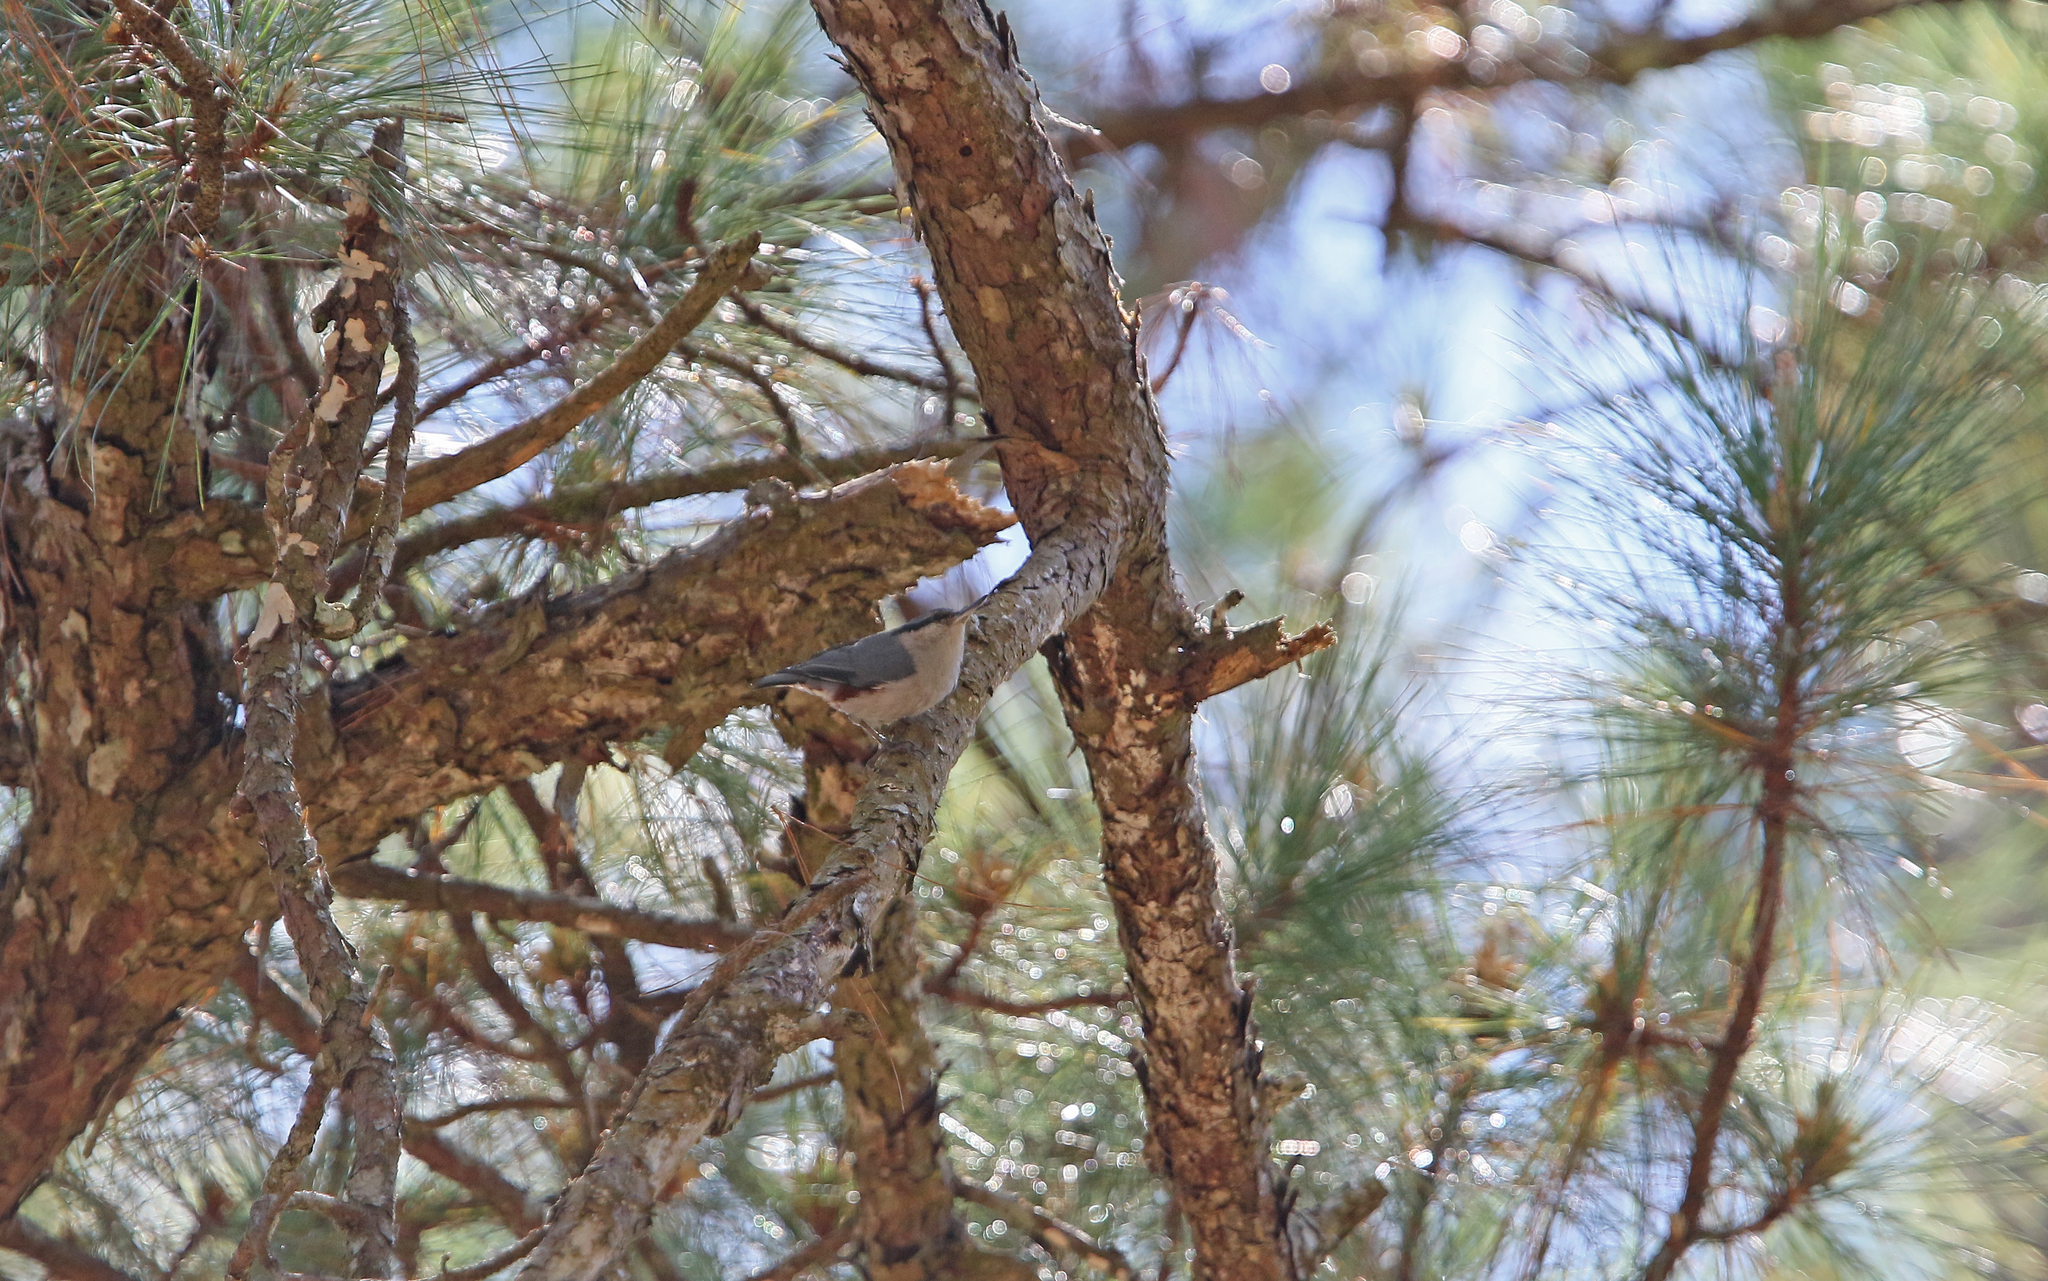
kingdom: Animalia
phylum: Chordata
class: Aves
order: Passeriformes
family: Sittidae
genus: Sitta
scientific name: Sitta nagaensis
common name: Chestnut-vented nuthatch
